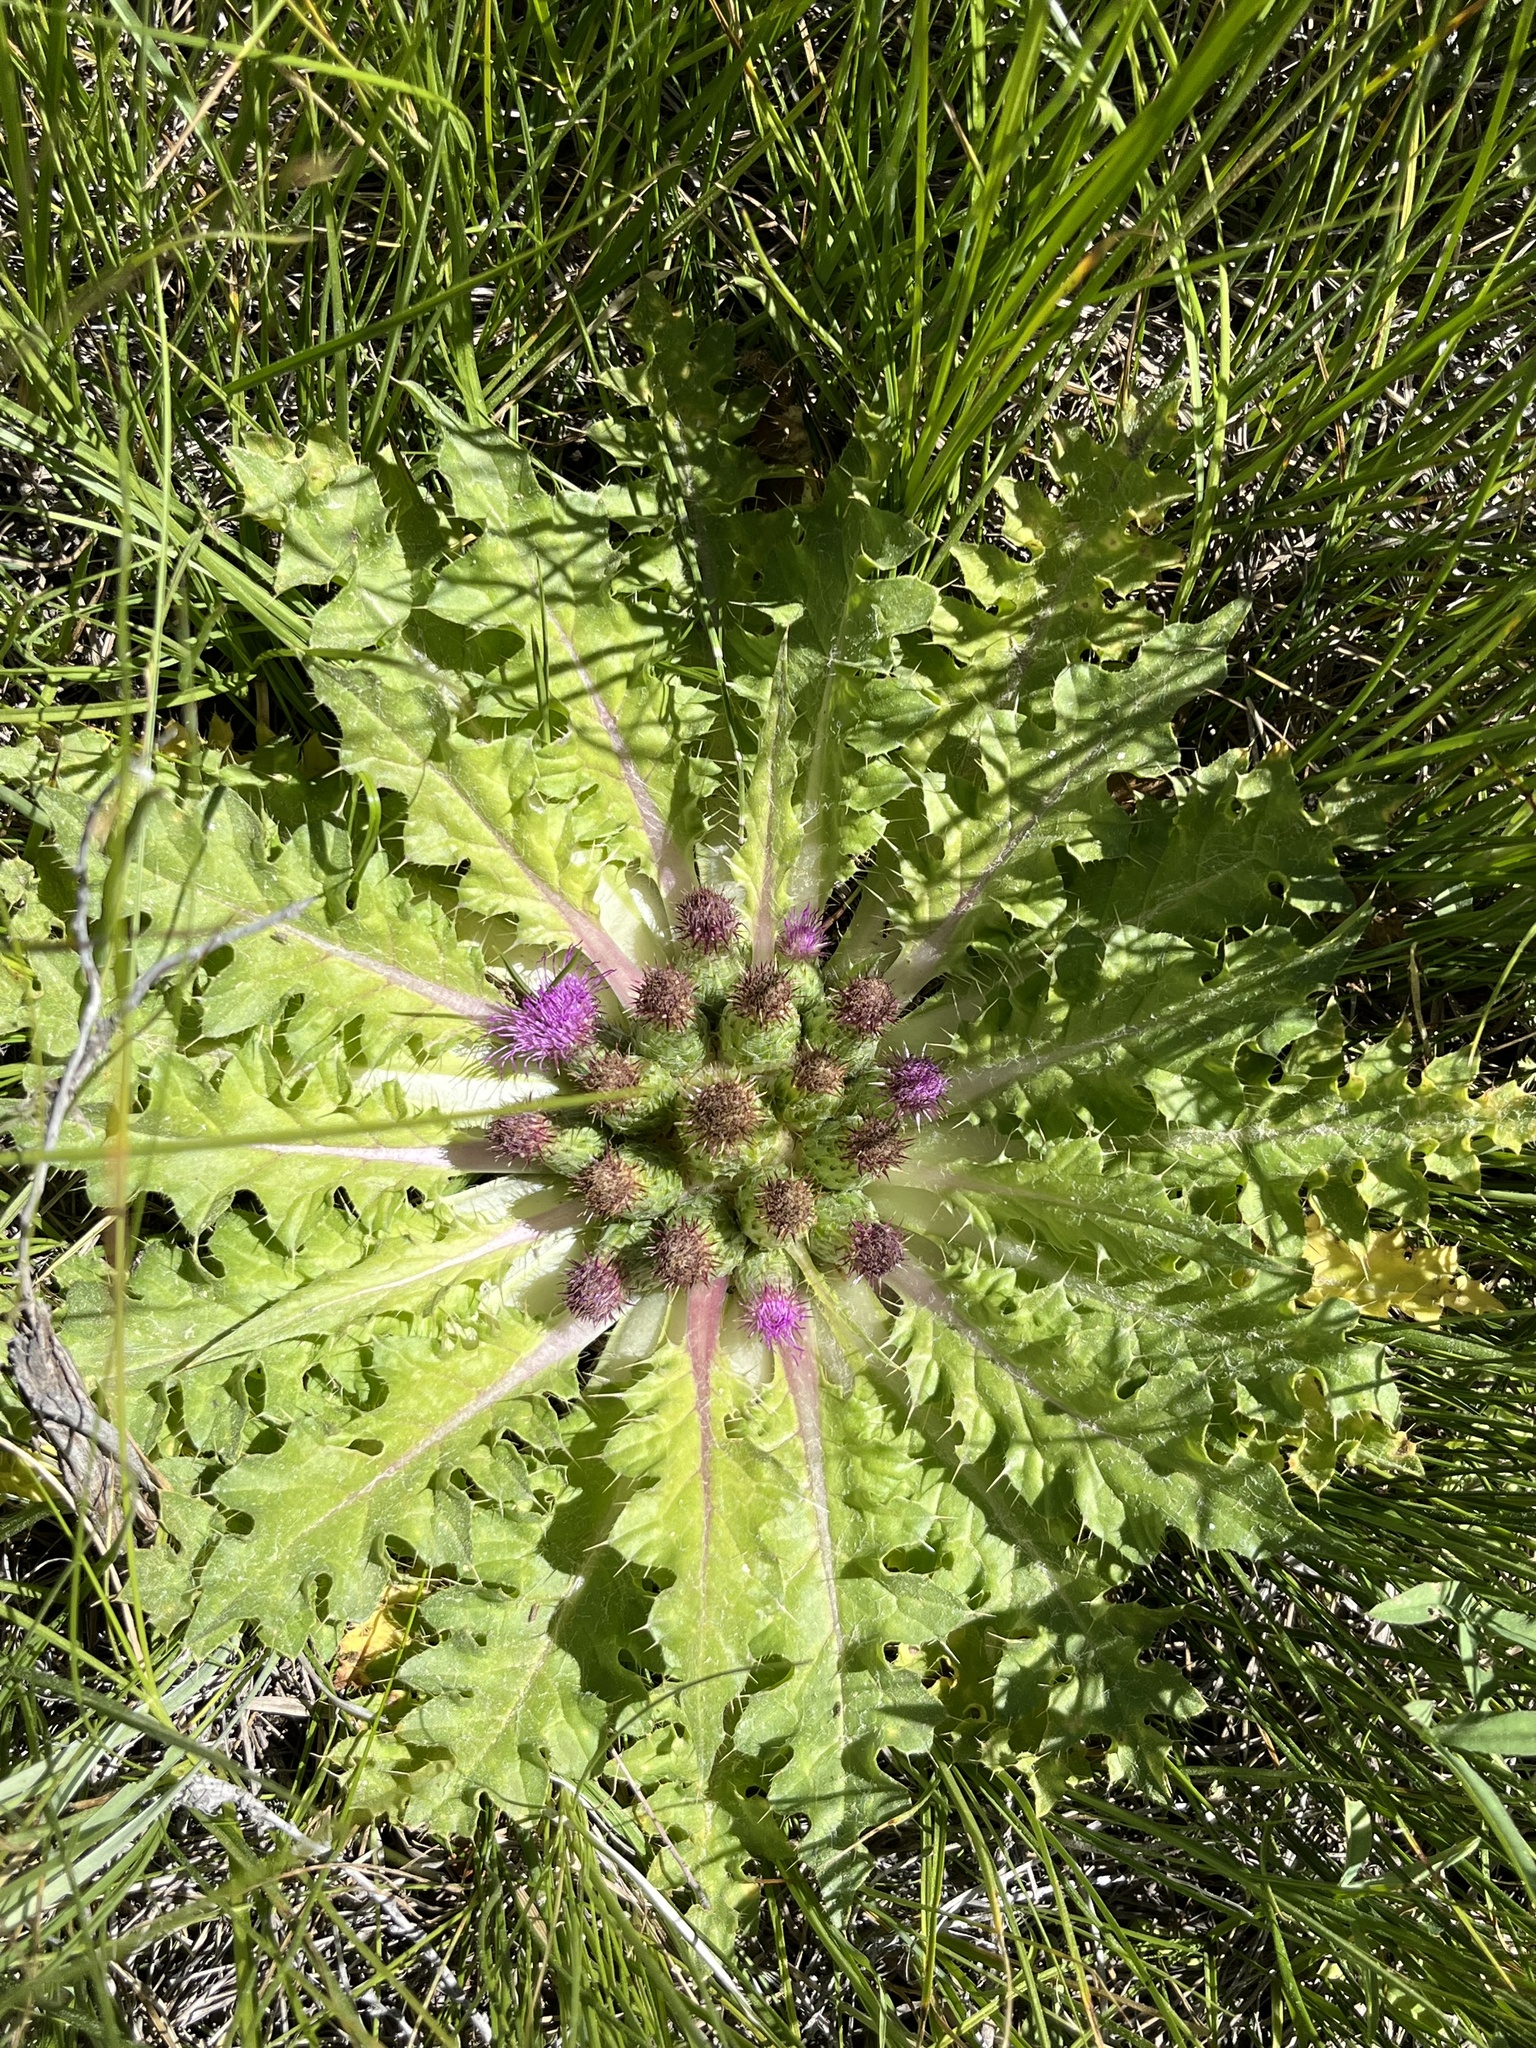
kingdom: Plantae
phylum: Tracheophyta
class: Magnoliopsida
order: Asterales
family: Asteraceae
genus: Cirsium
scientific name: Cirsium congdonii
